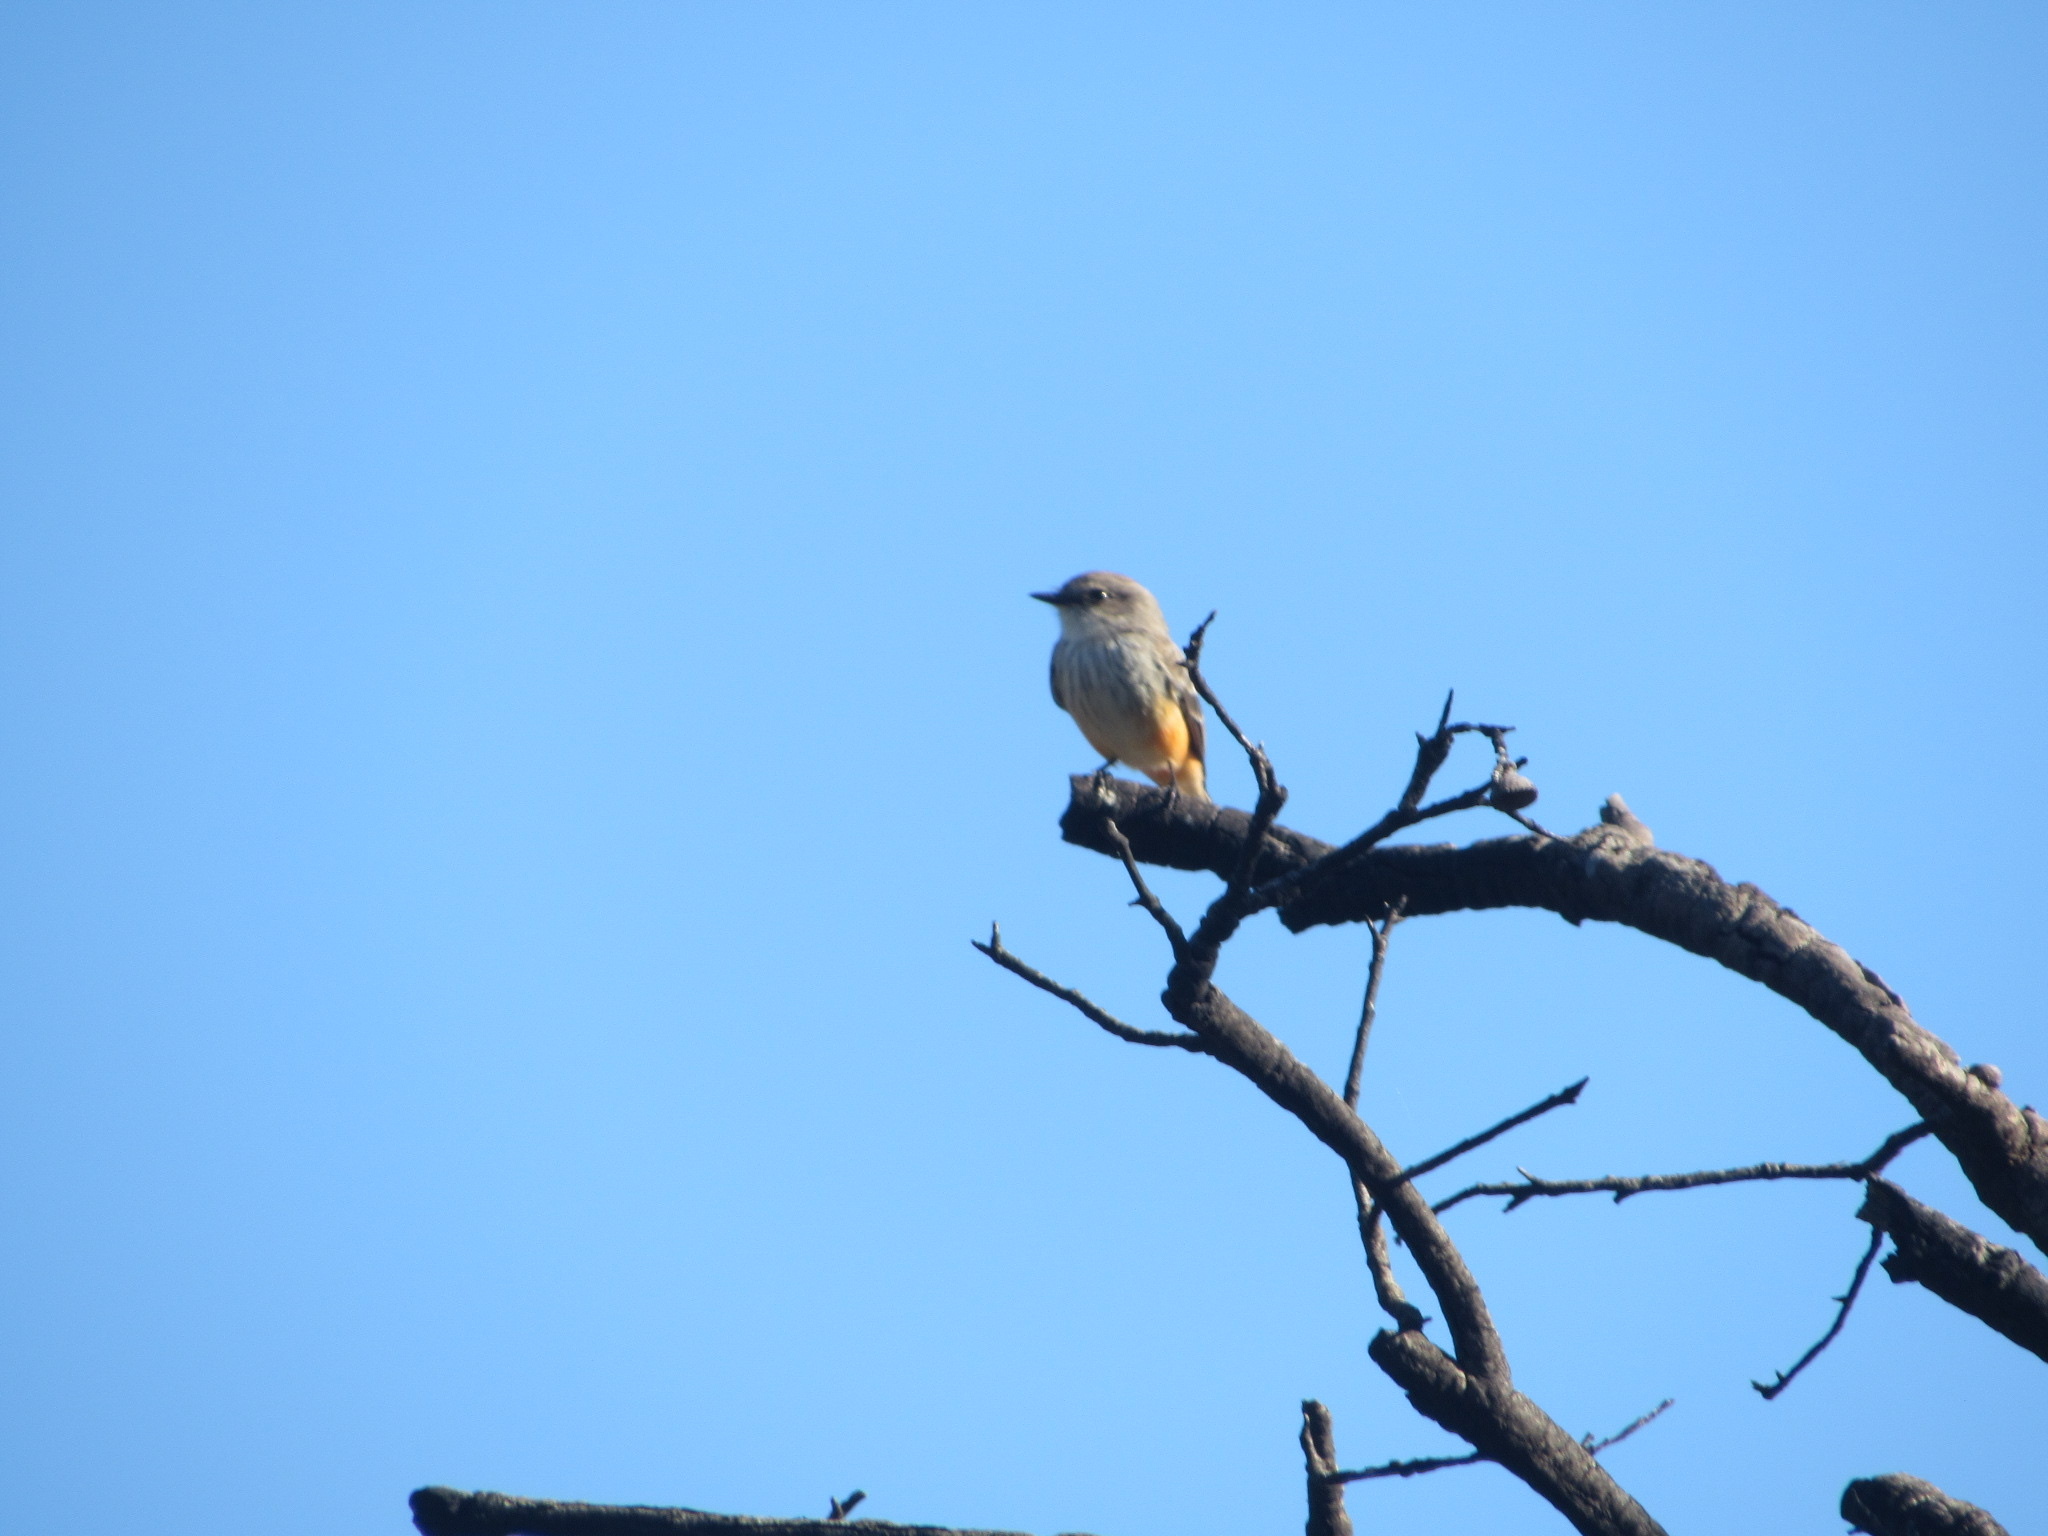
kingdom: Animalia
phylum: Chordata
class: Aves
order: Passeriformes
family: Tyrannidae
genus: Pyrocephalus
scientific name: Pyrocephalus rubinus
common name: Vermilion flycatcher
